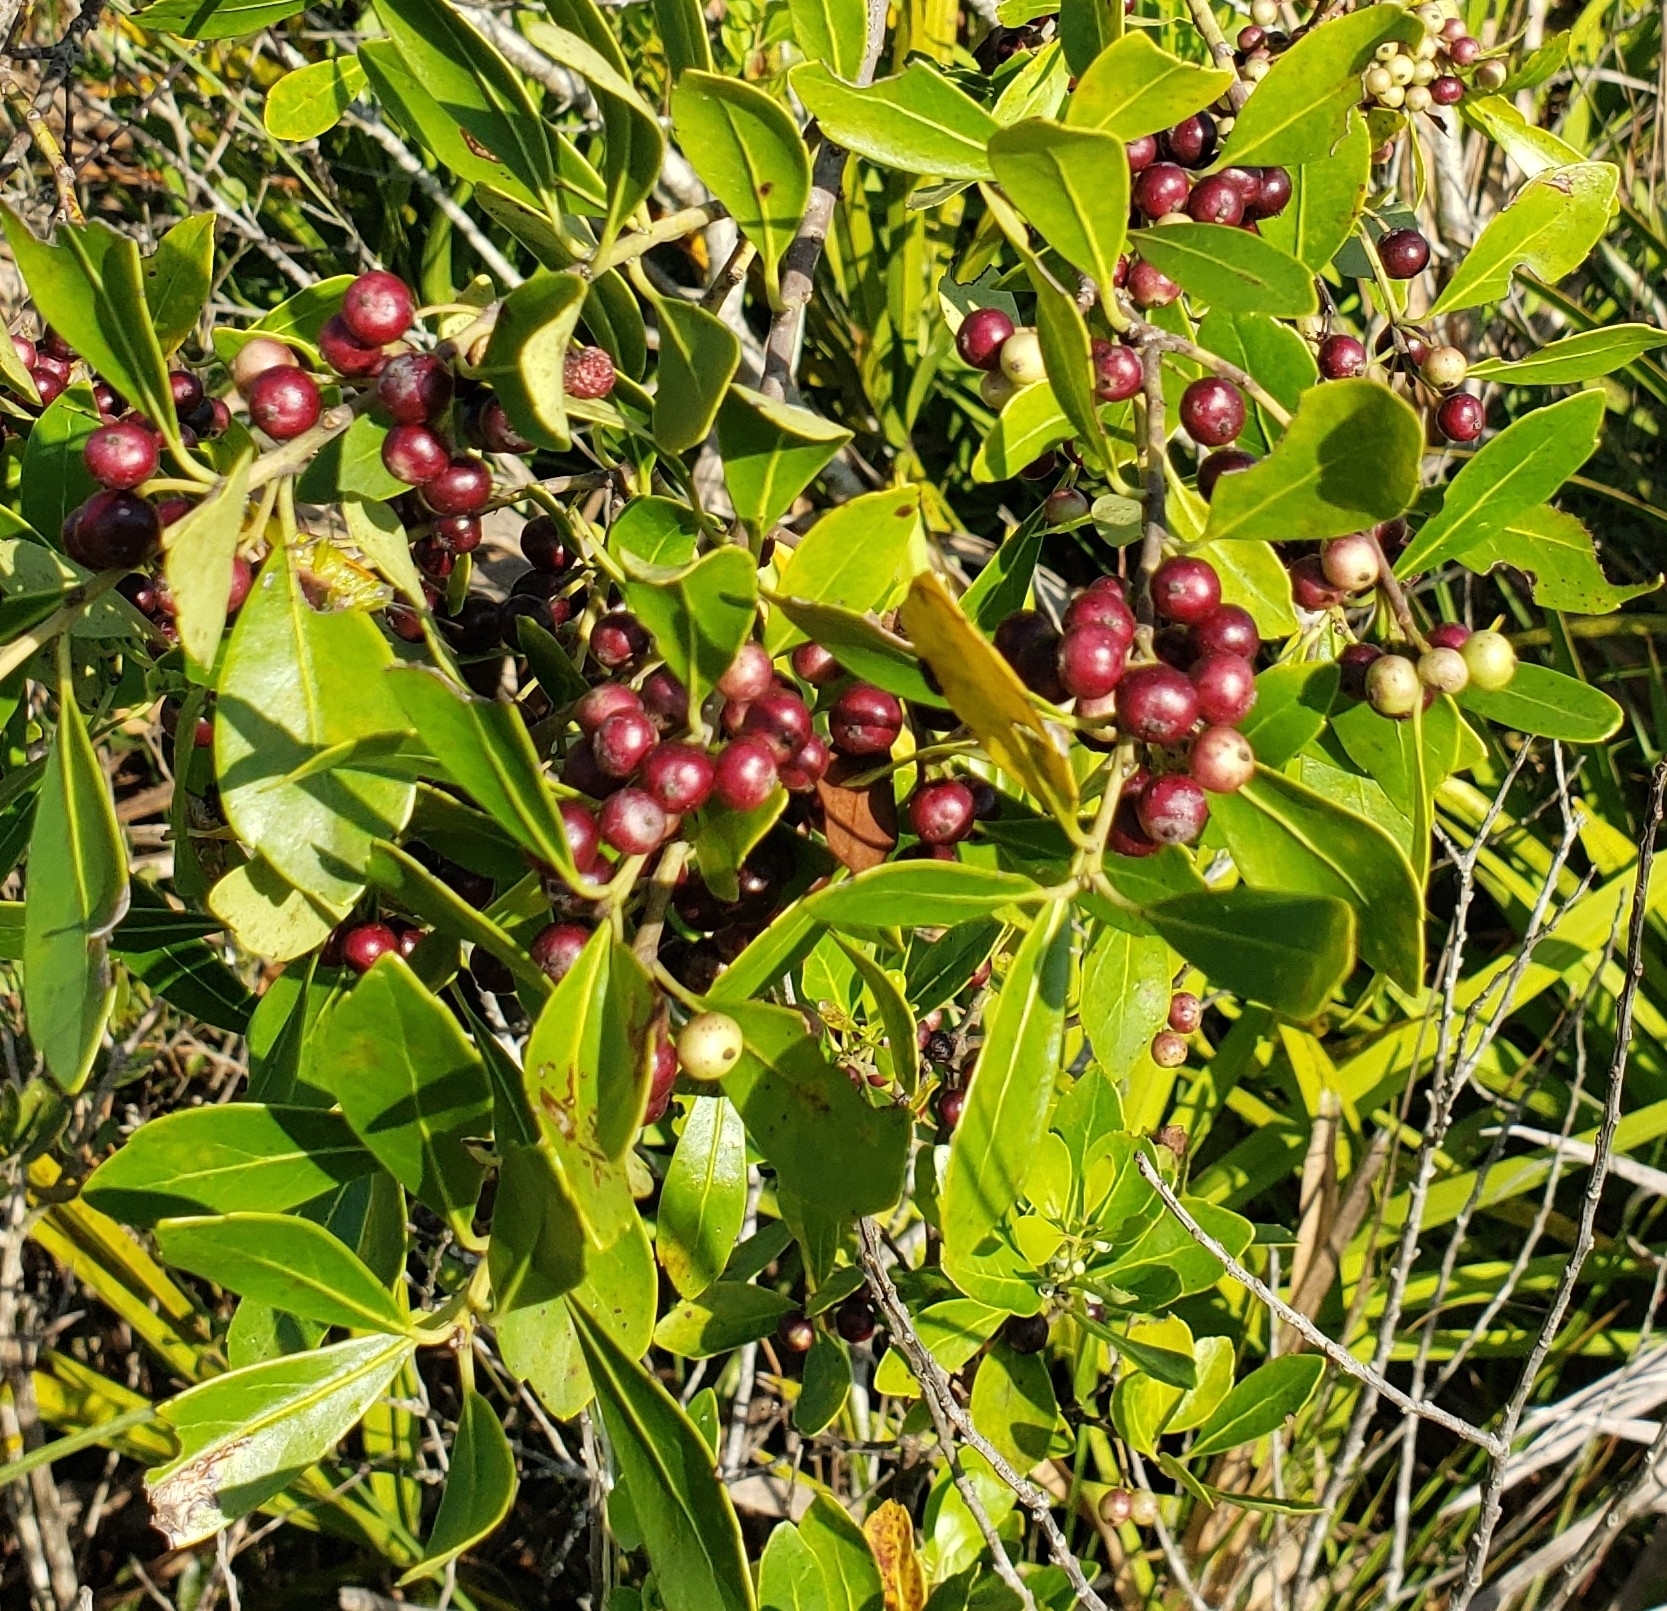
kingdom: Plantae
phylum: Tracheophyta
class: Magnoliopsida
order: Aquifoliales
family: Aquifoliaceae
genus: Ilex
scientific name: Ilex glabra
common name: Bitter gallberry
